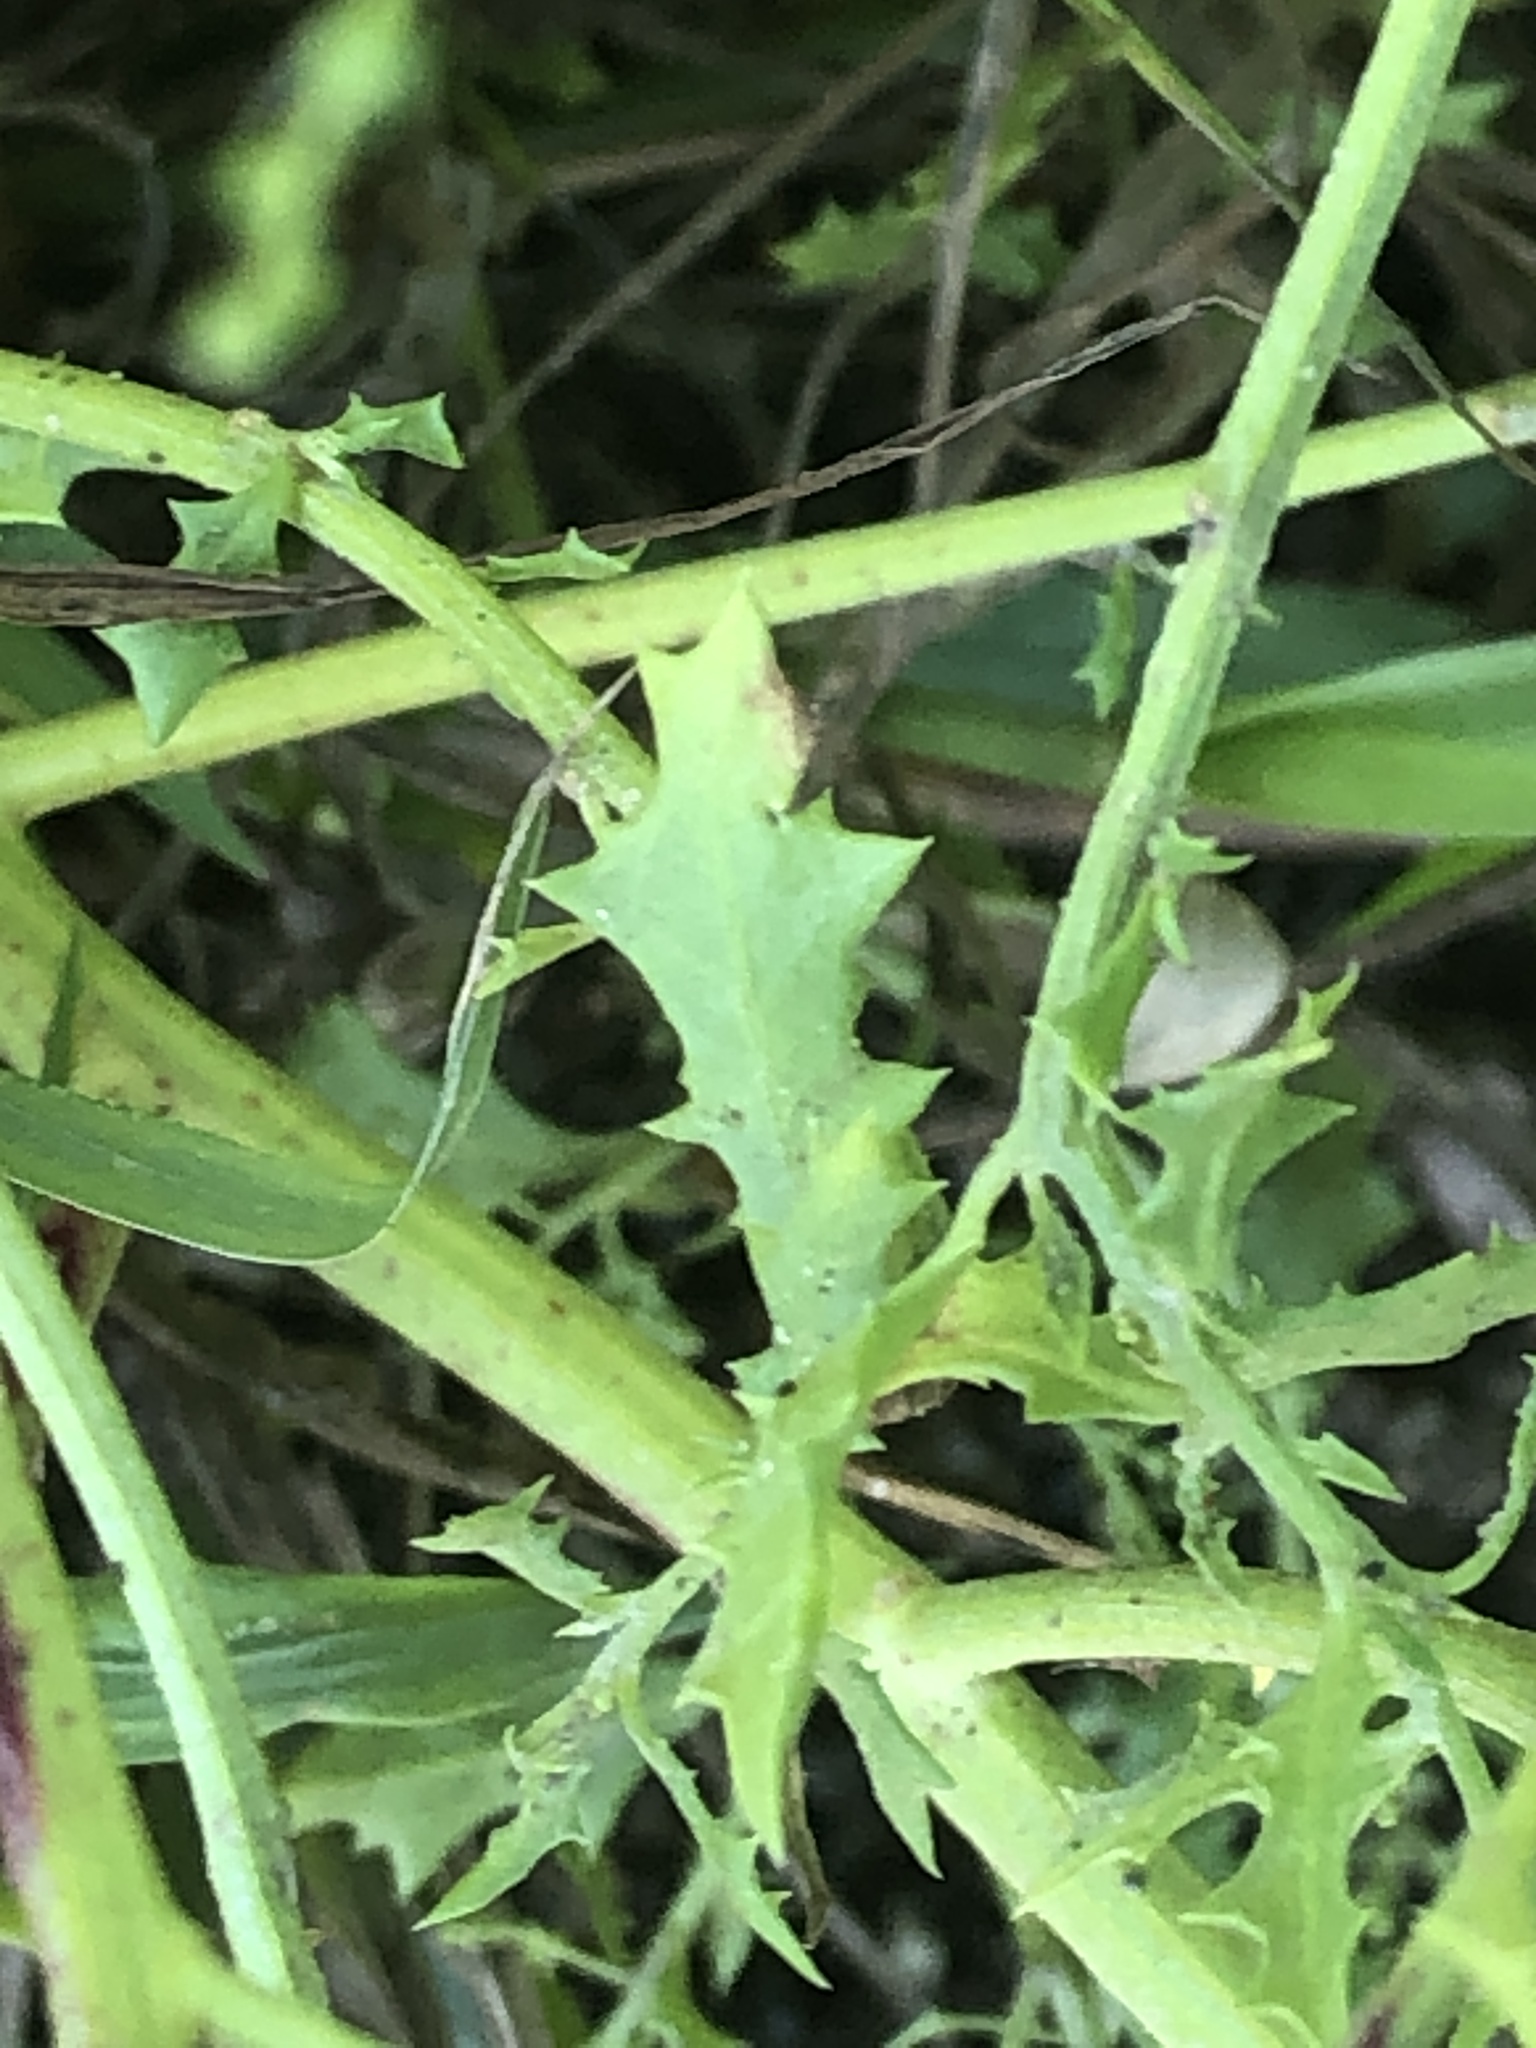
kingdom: Plantae
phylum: Tracheophyta
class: Magnoliopsida
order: Caryophyllales
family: Amaranthaceae
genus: Dysphania
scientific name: Dysphania atriplicifolia
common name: Plains tumbleweed
